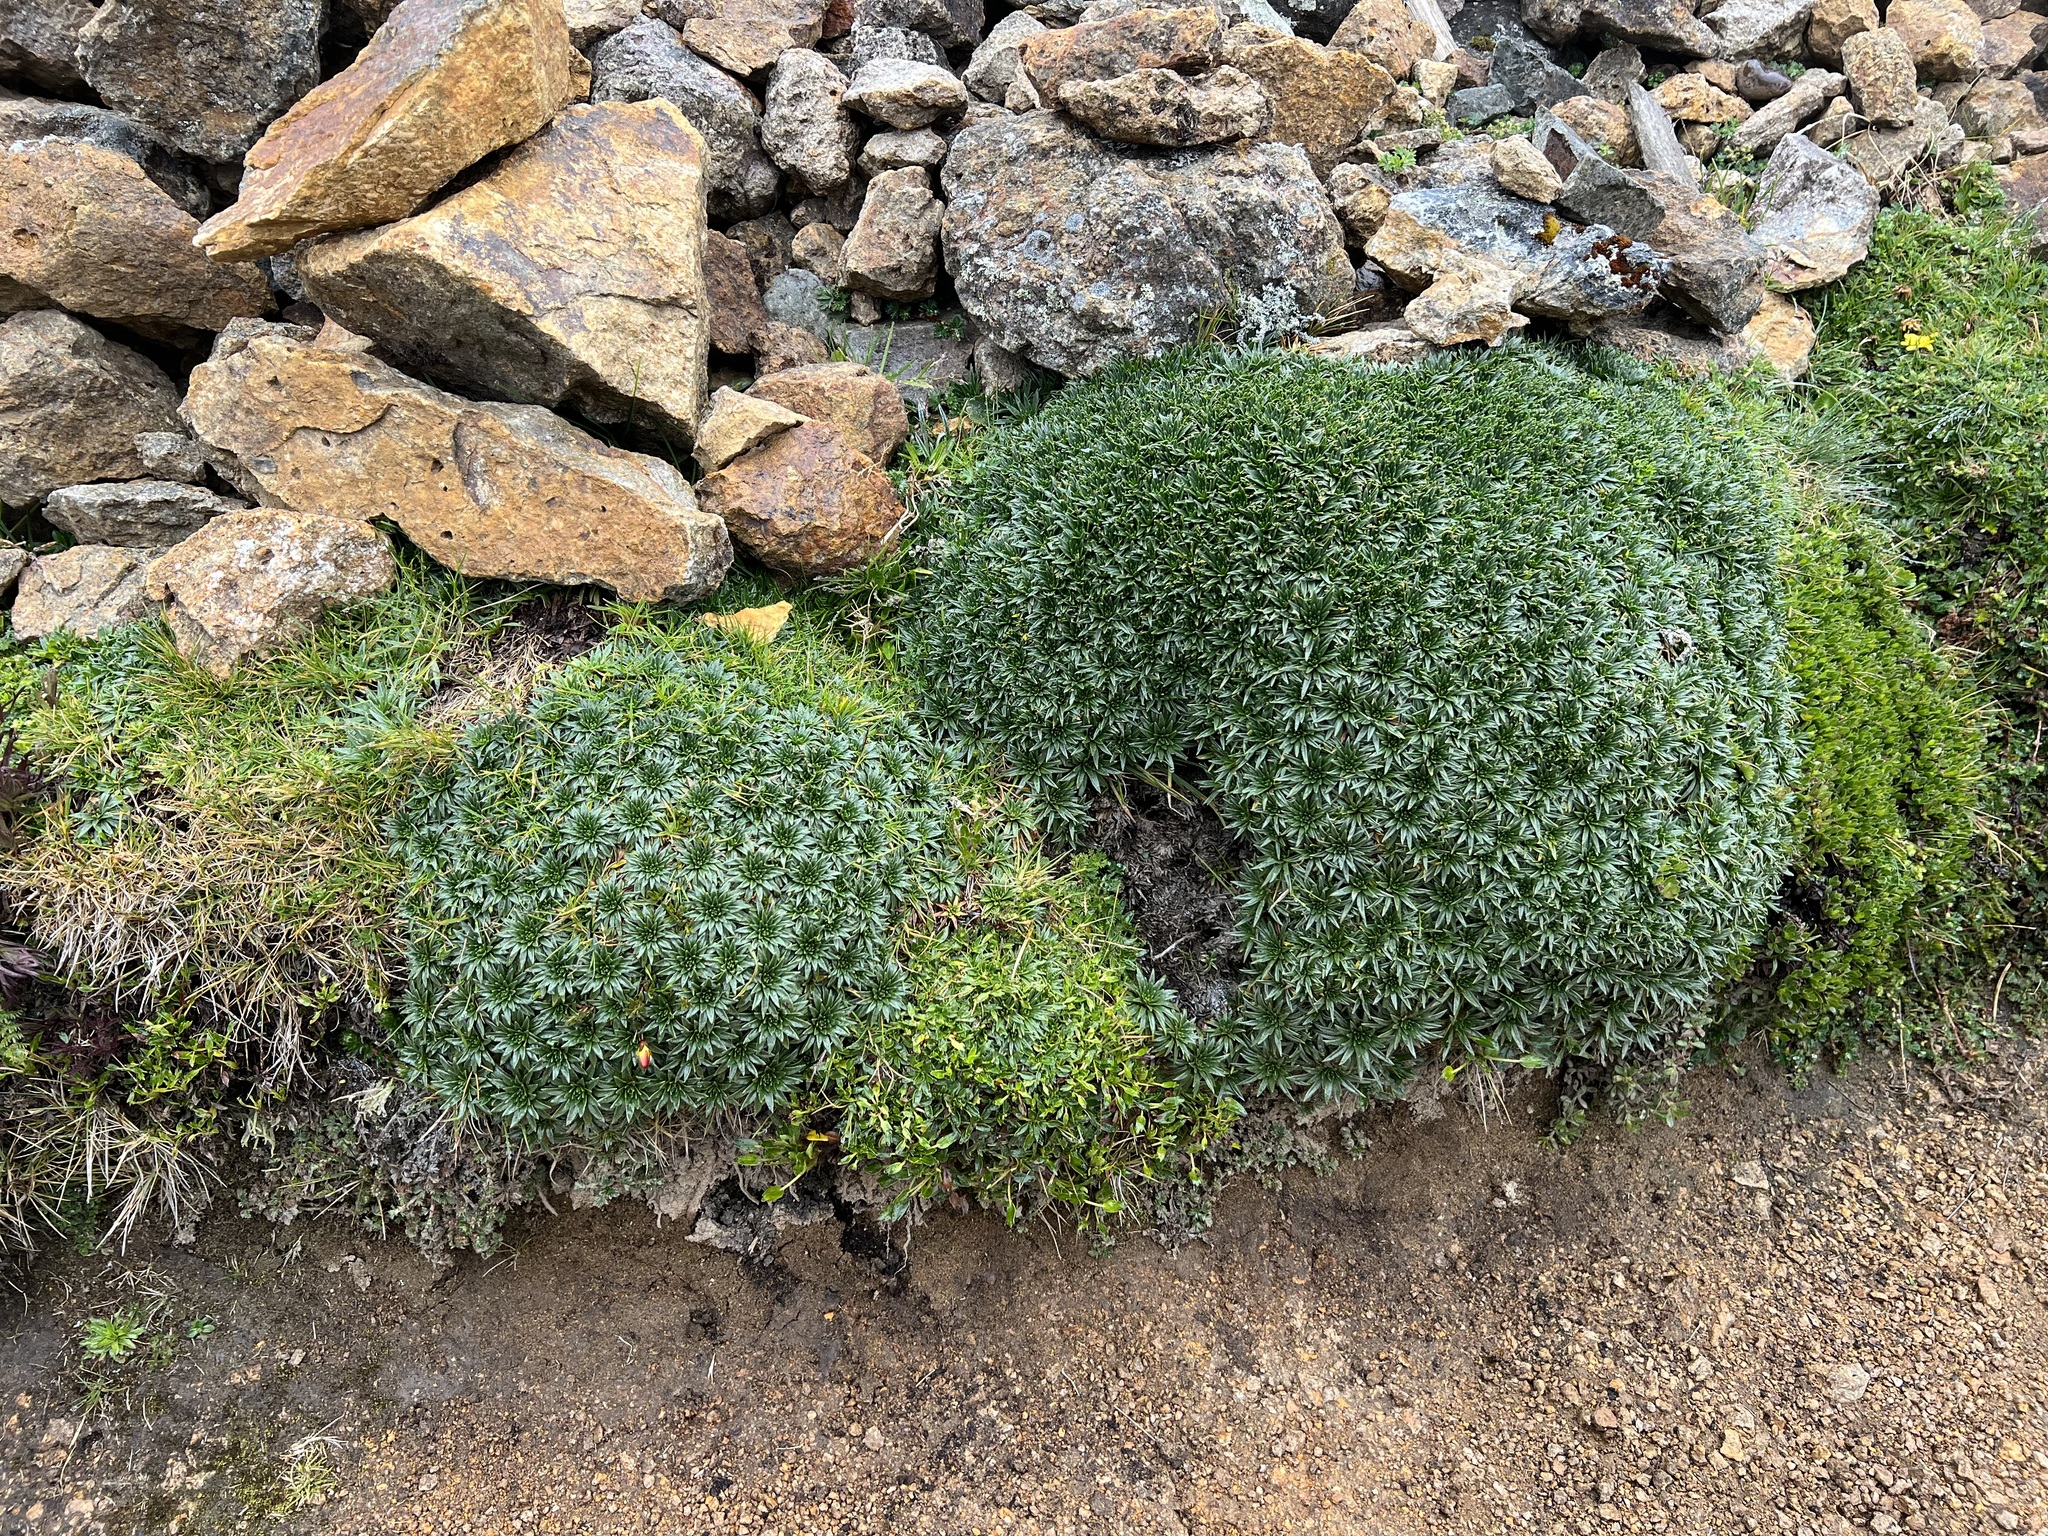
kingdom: Plantae
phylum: Tracheophyta
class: Magnoliopsida
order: Lamiales
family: Plantaginaceae
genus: Plantago
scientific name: Plantago rigida
